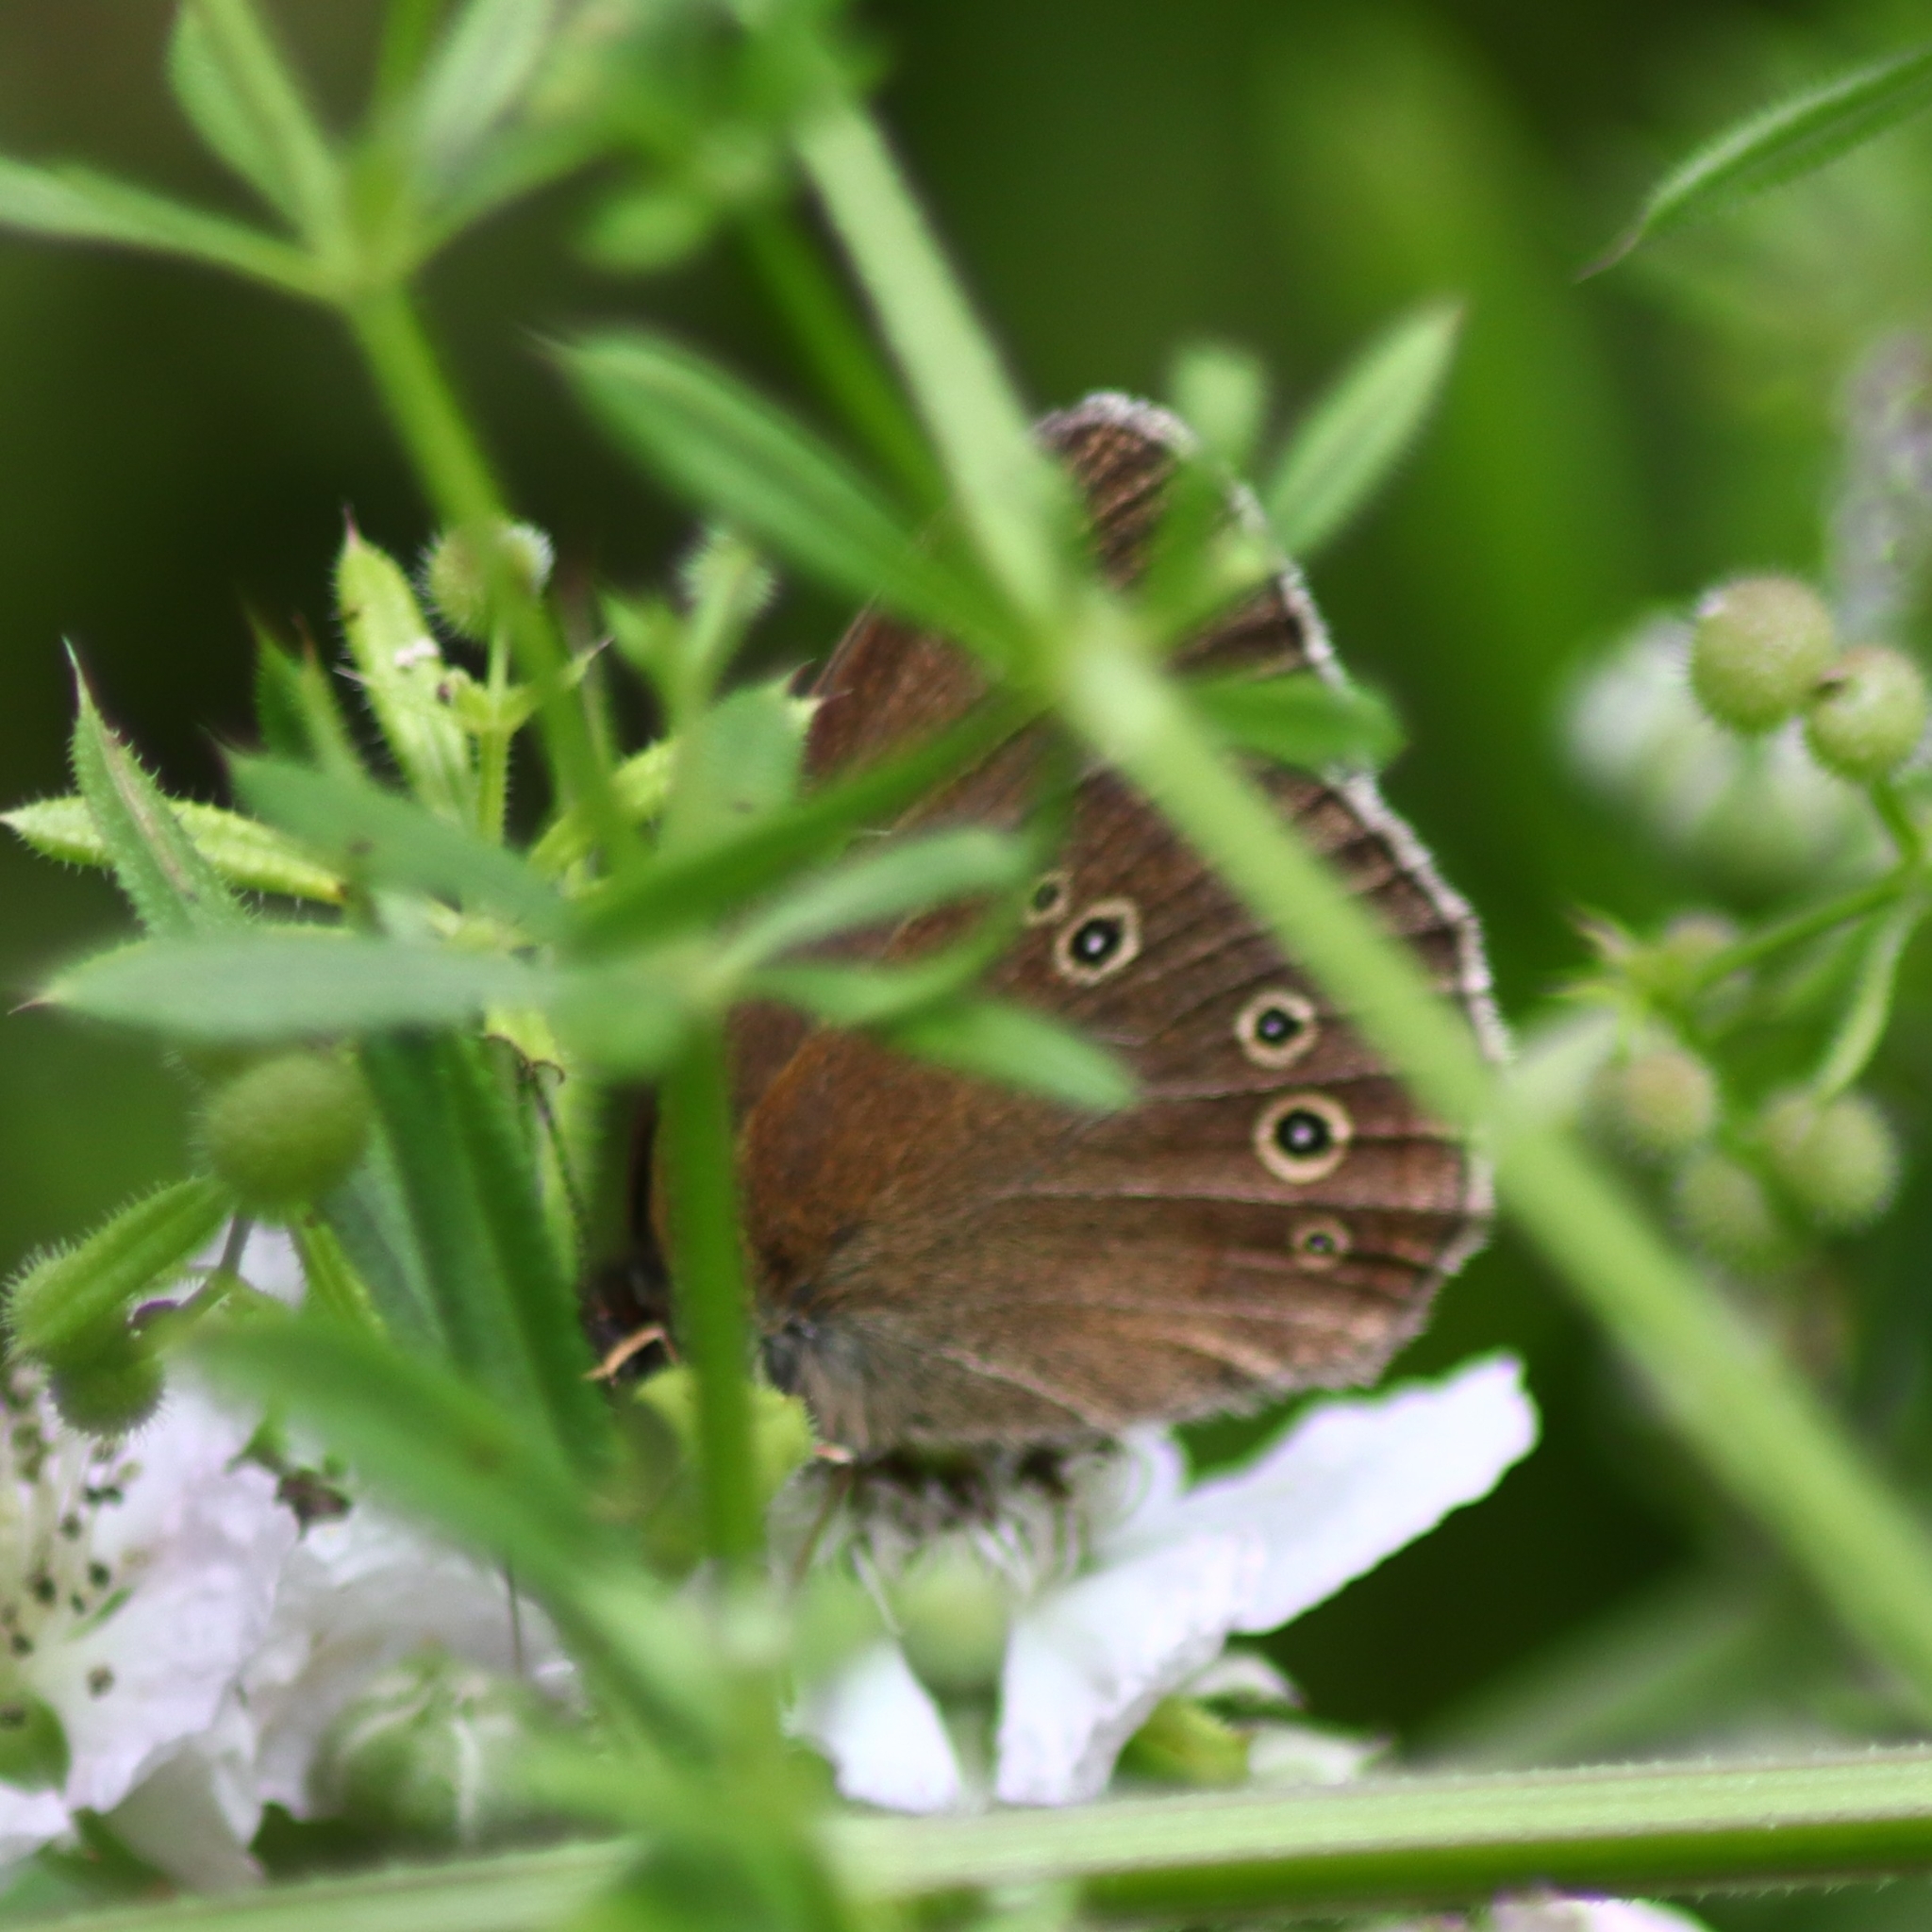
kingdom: Animalia
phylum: Arthropoda
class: Insecta
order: Lepidoptera
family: Nymphalidae
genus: Aphantopus
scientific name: Aphantopus hyperantus
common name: Ringlet
